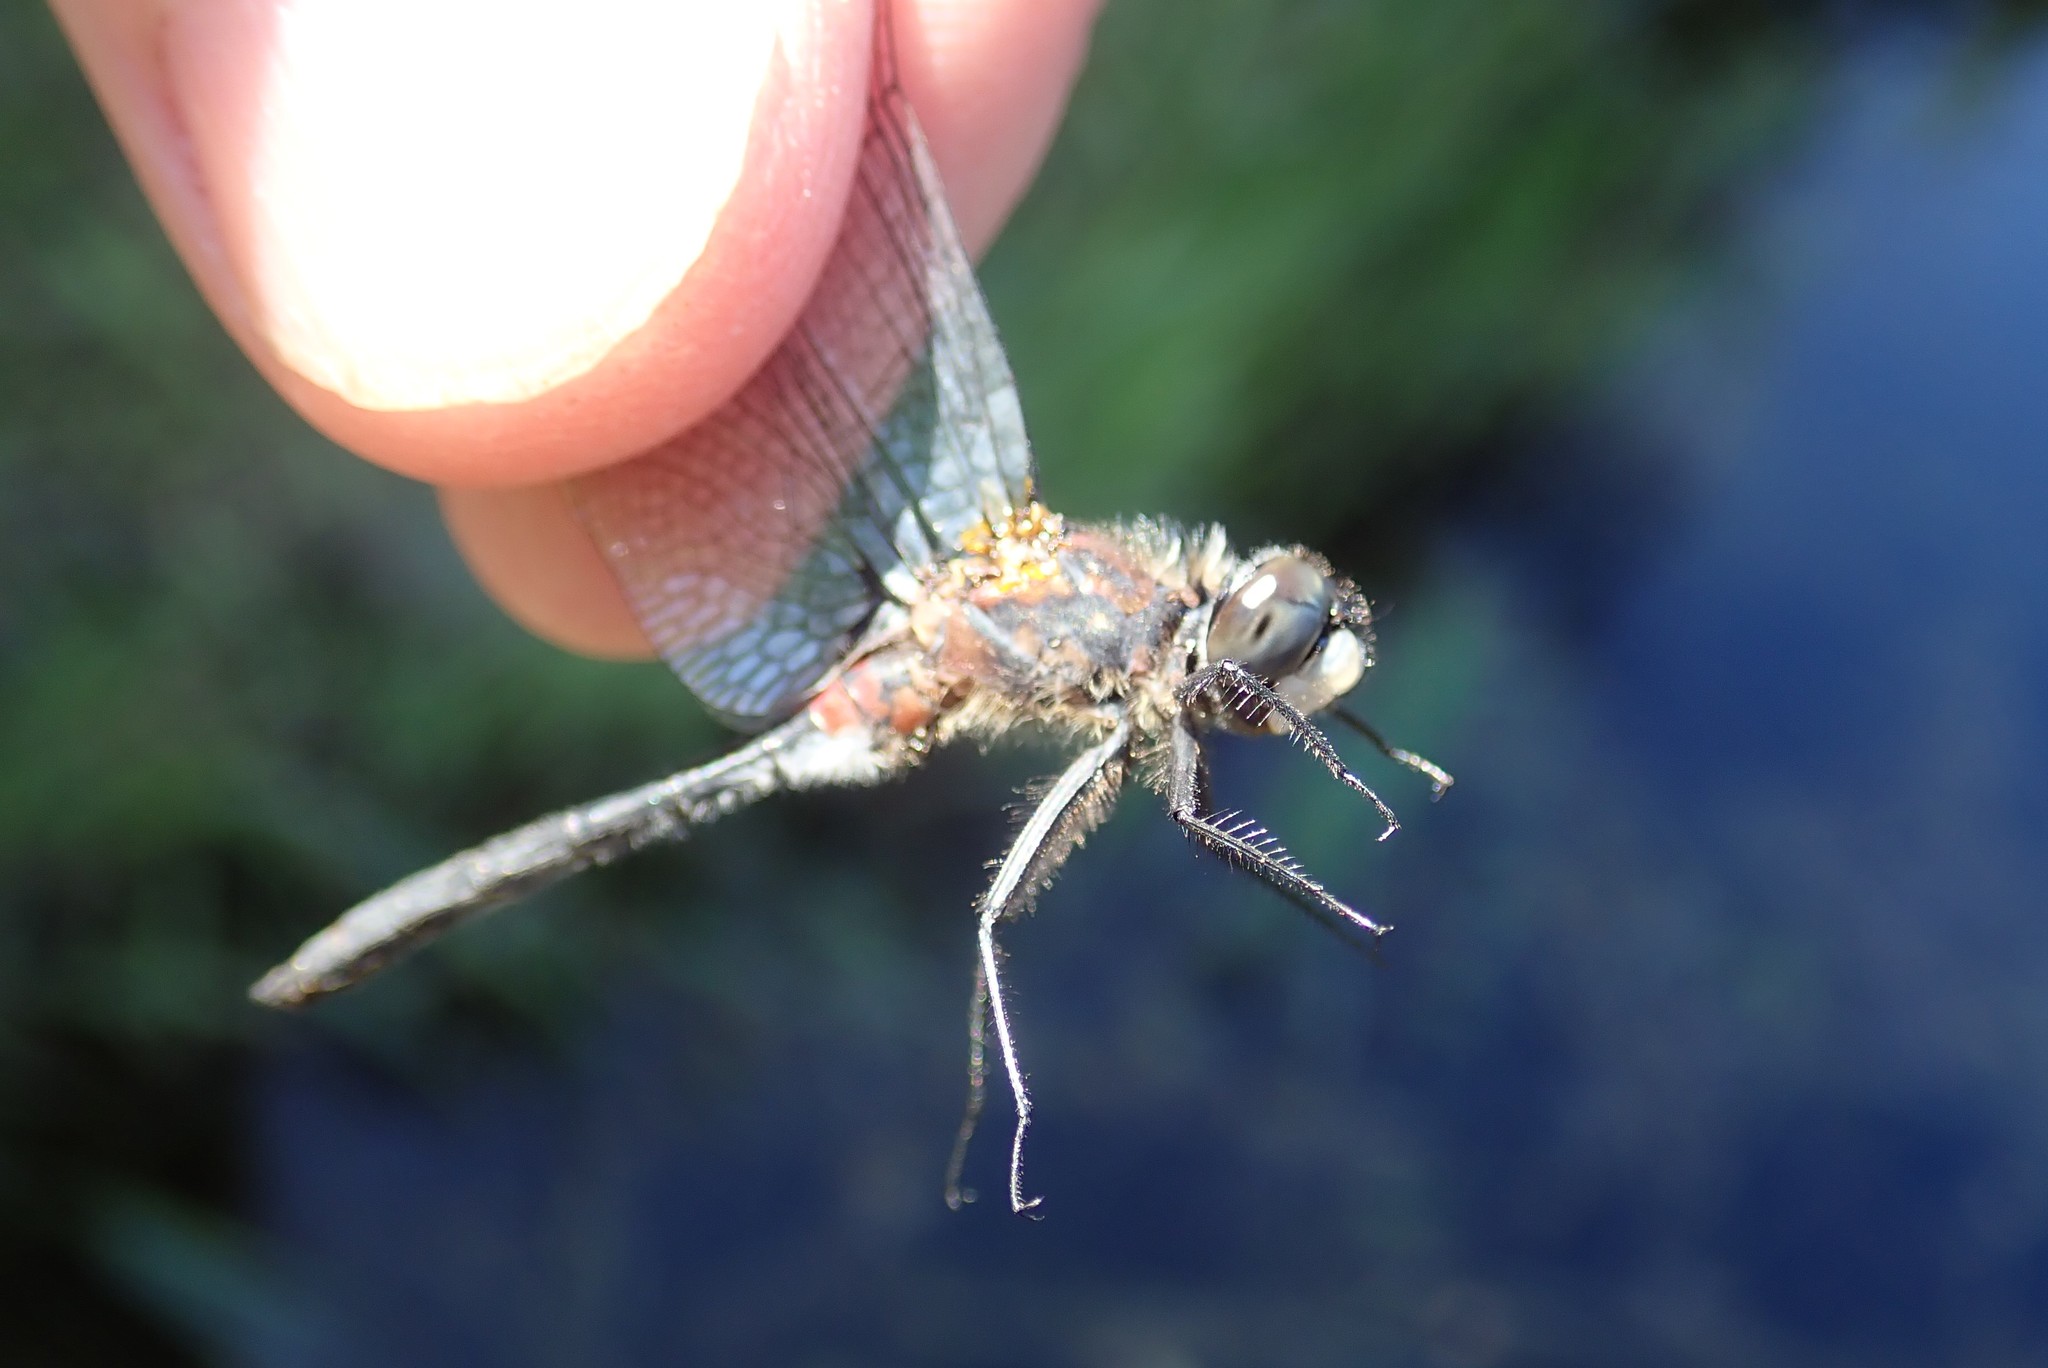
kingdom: Animalia
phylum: Arthropoda
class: Insecta
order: Odonata
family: Libellulidae
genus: Leucorrhinia
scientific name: Leucorrhinia proxima
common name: Belted whiteface
